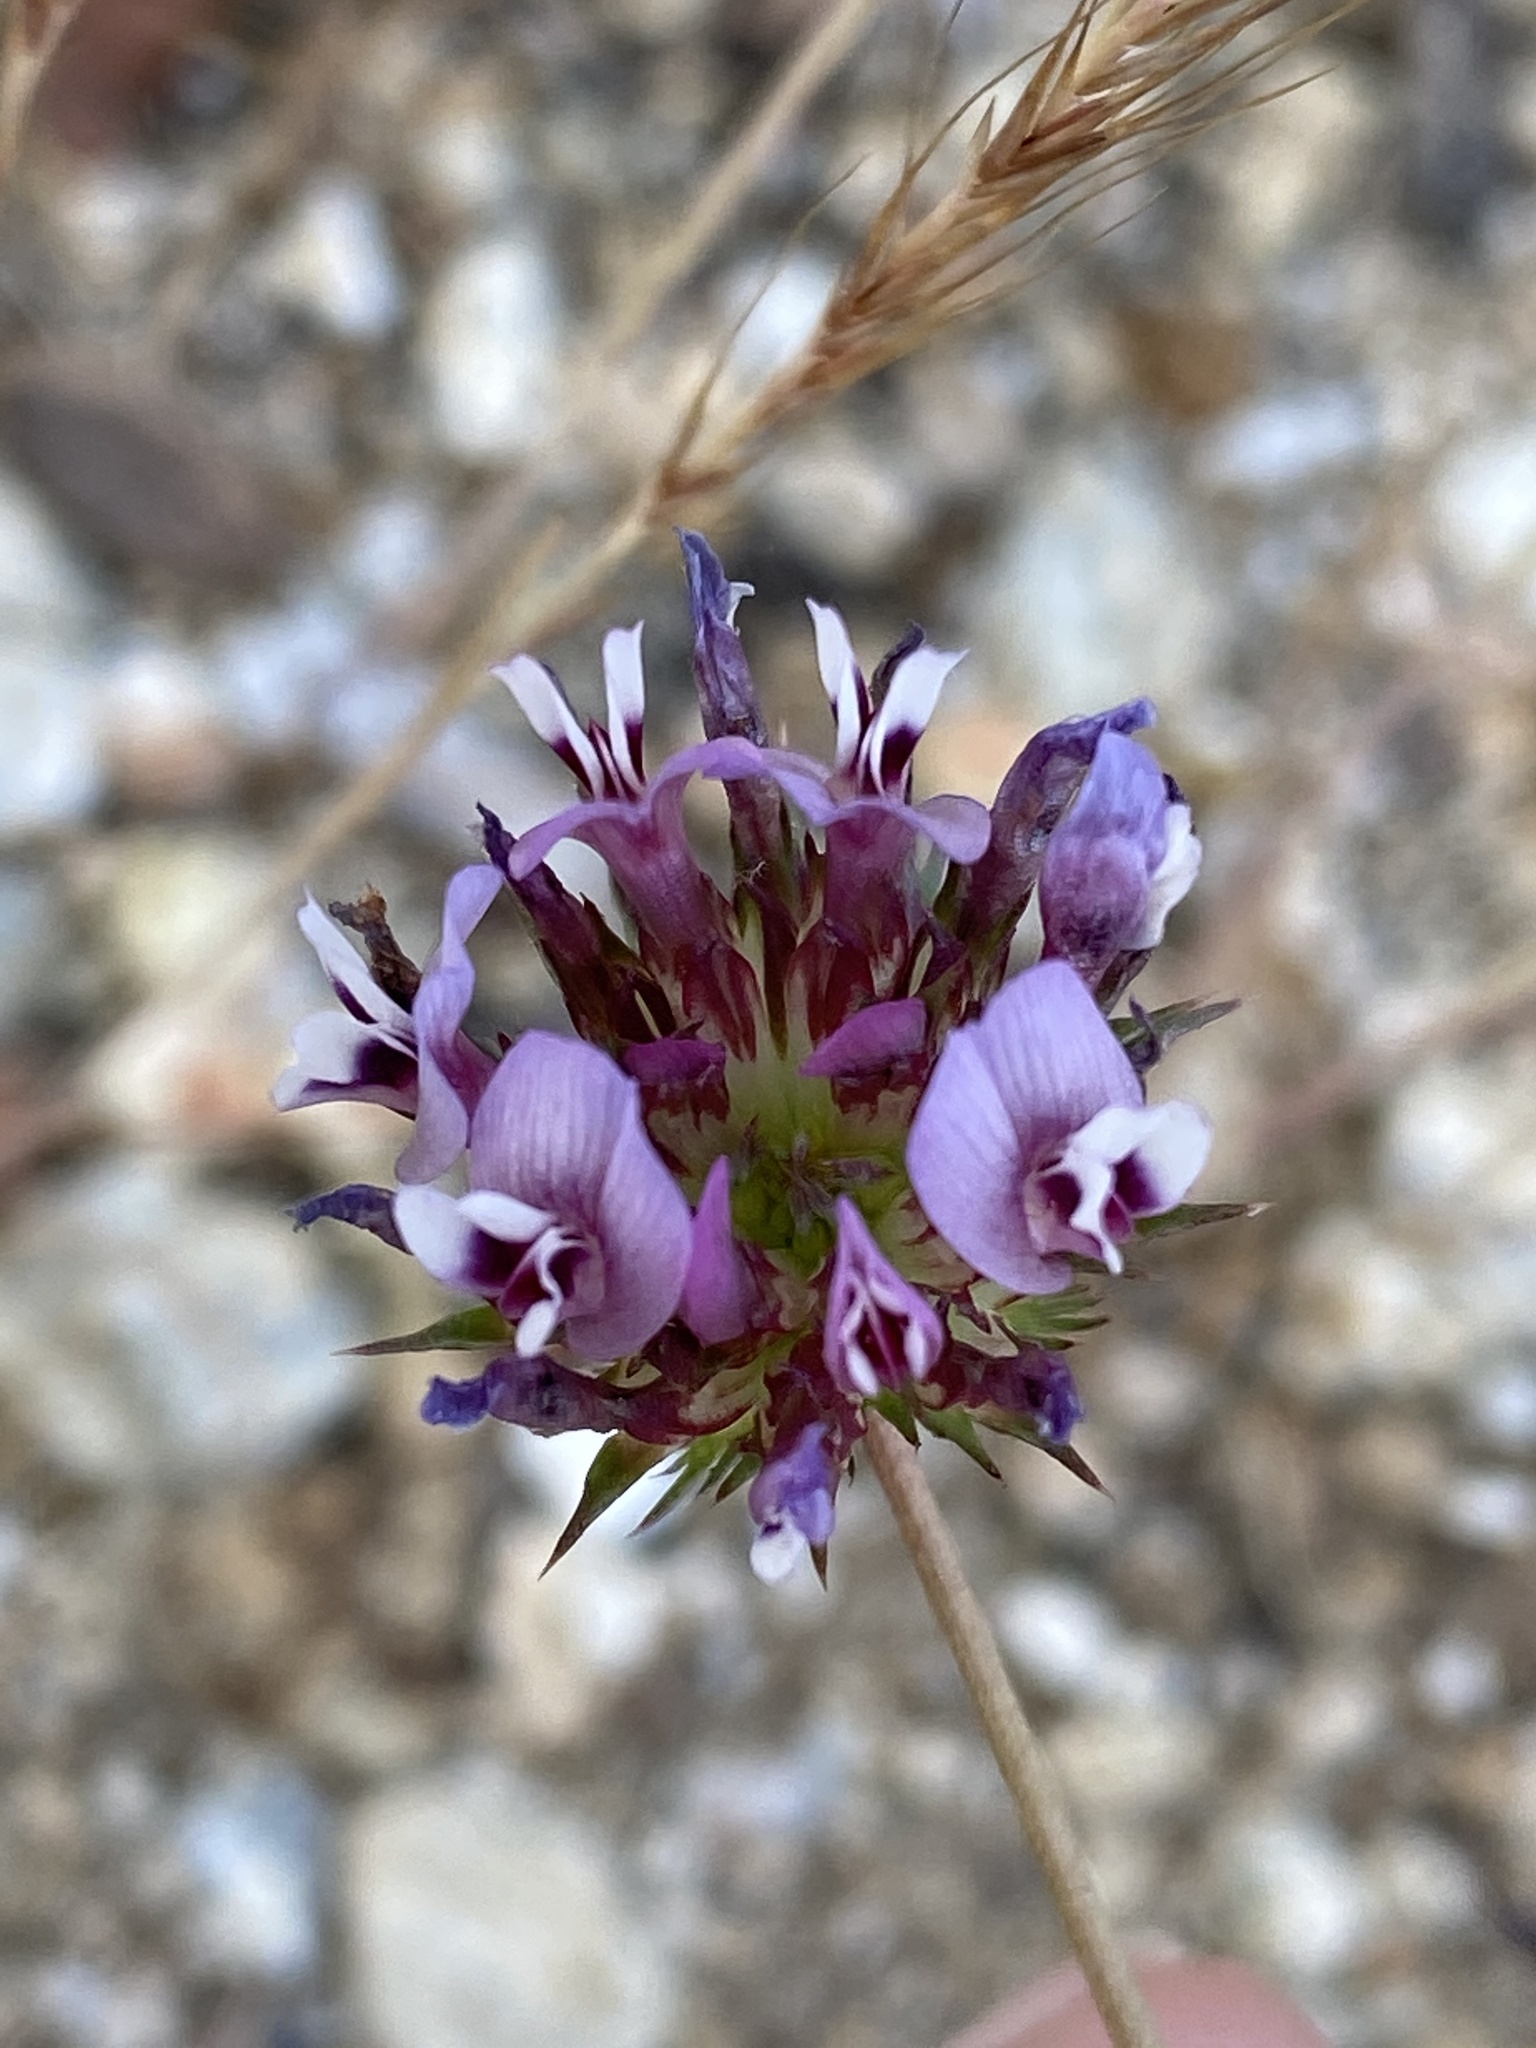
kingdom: Plantae
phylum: Tracheophyta
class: Magnoliopsida
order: Fabales
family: Fabaceae
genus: Trifolium
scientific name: Trifolium willdenovii
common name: Tomcat clover
